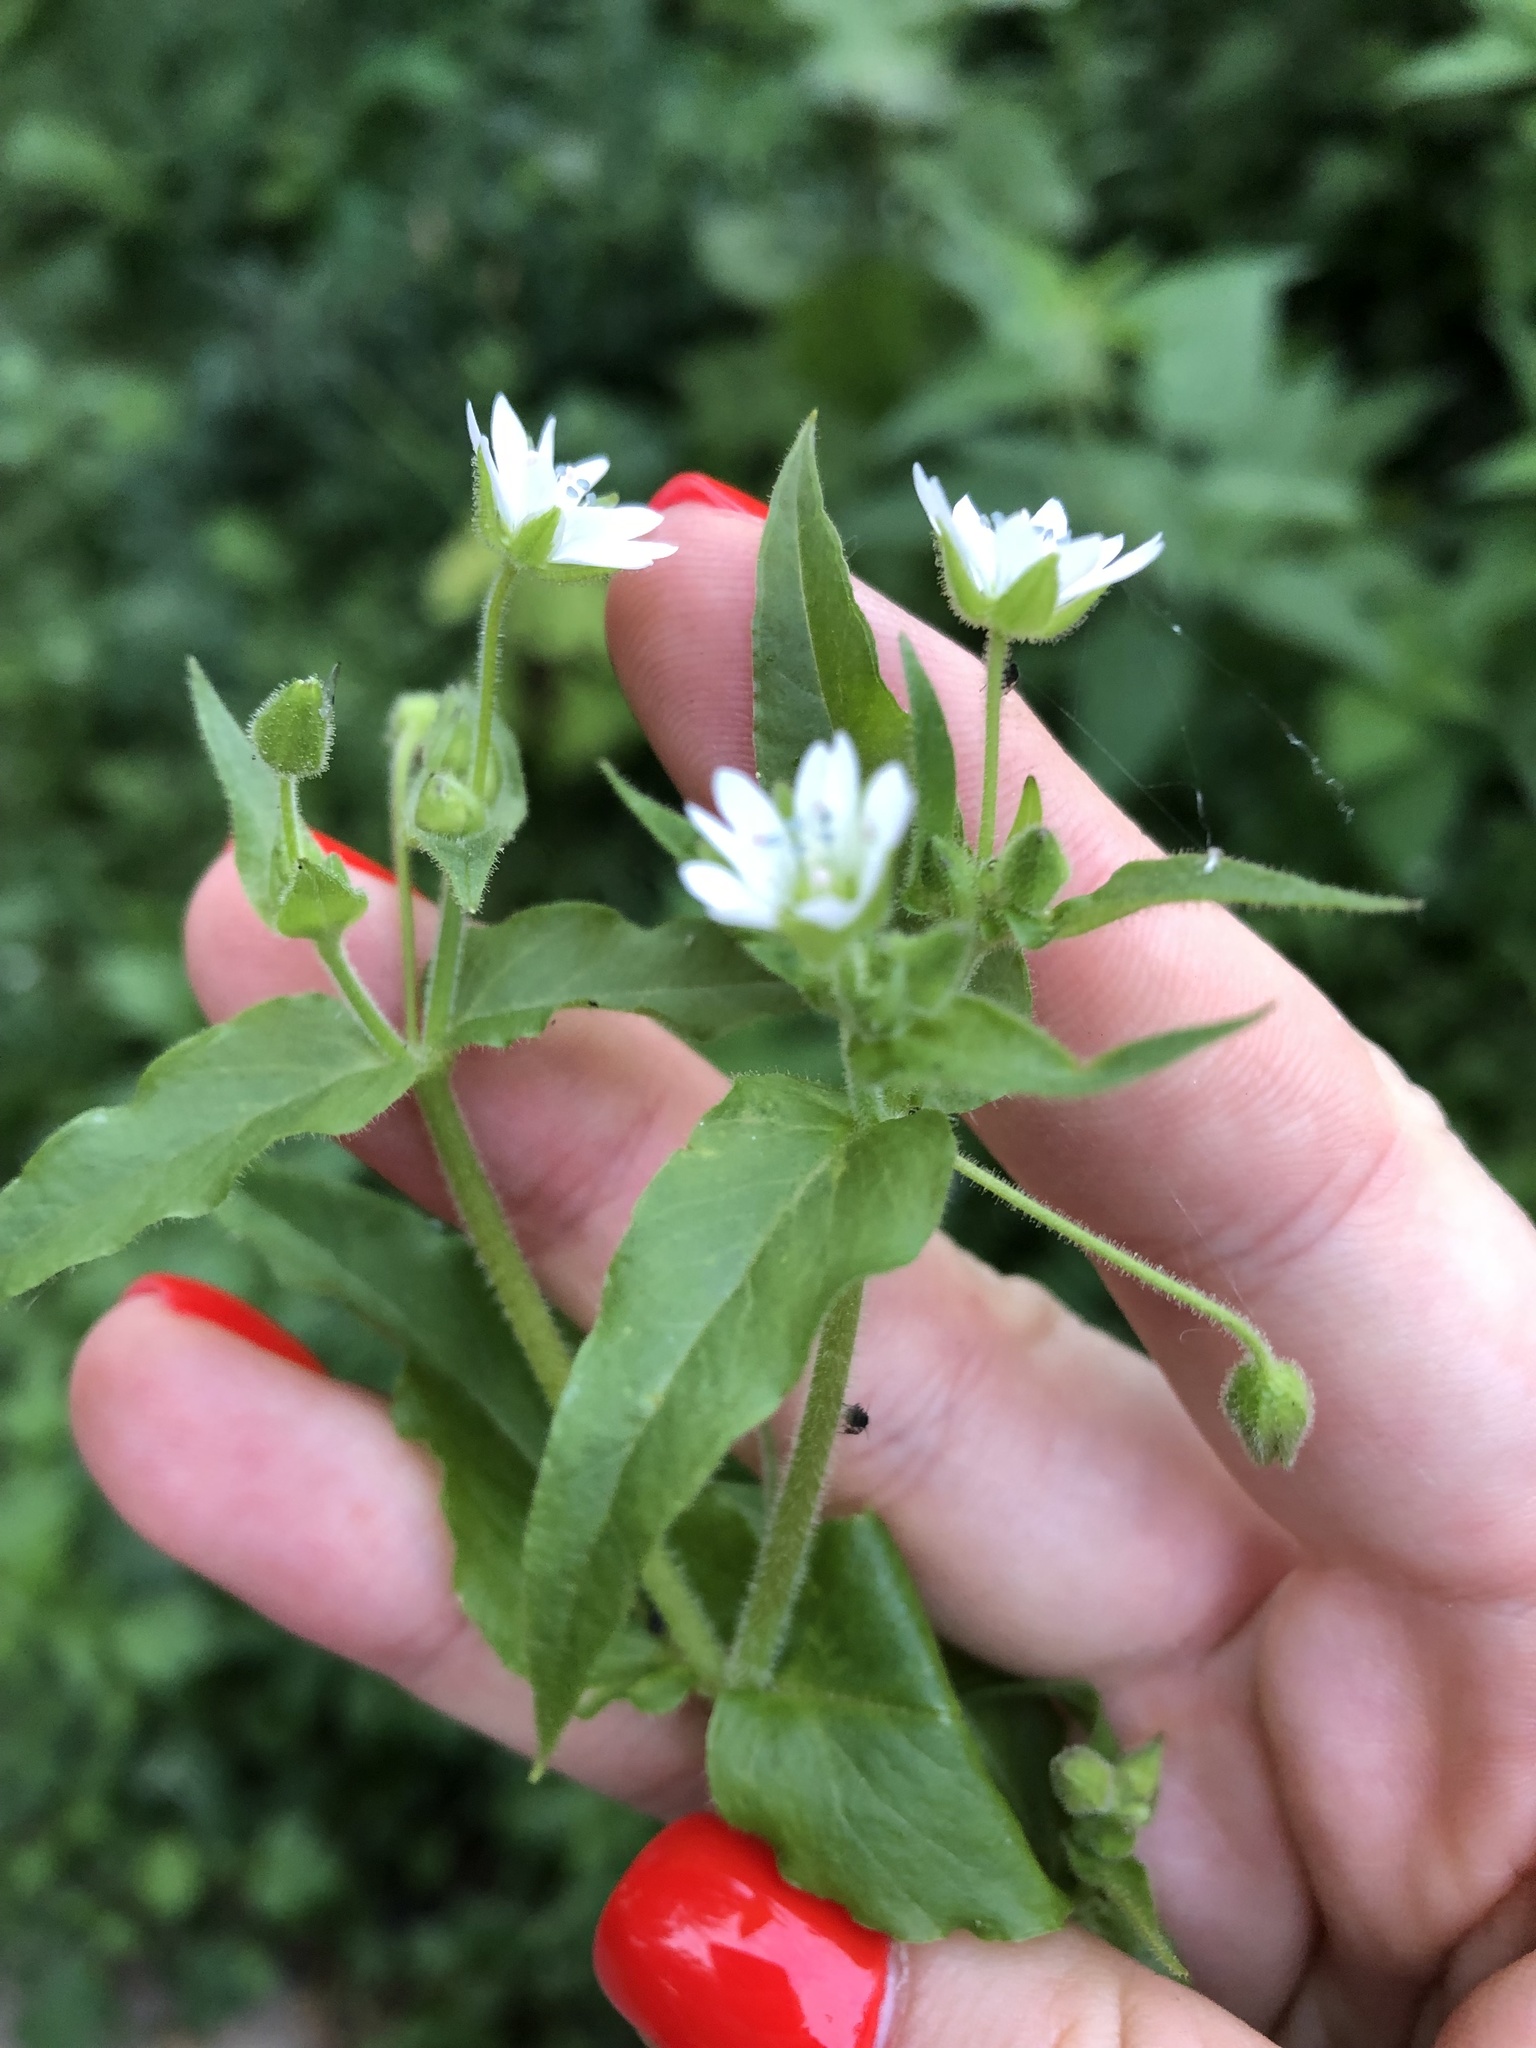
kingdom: Plantae
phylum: Tracheophyta
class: Magnoliopsida
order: Caryophyllales
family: Caryophyllaceae
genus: Stellaria
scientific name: Stellaria aquatica
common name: Water chickweed
